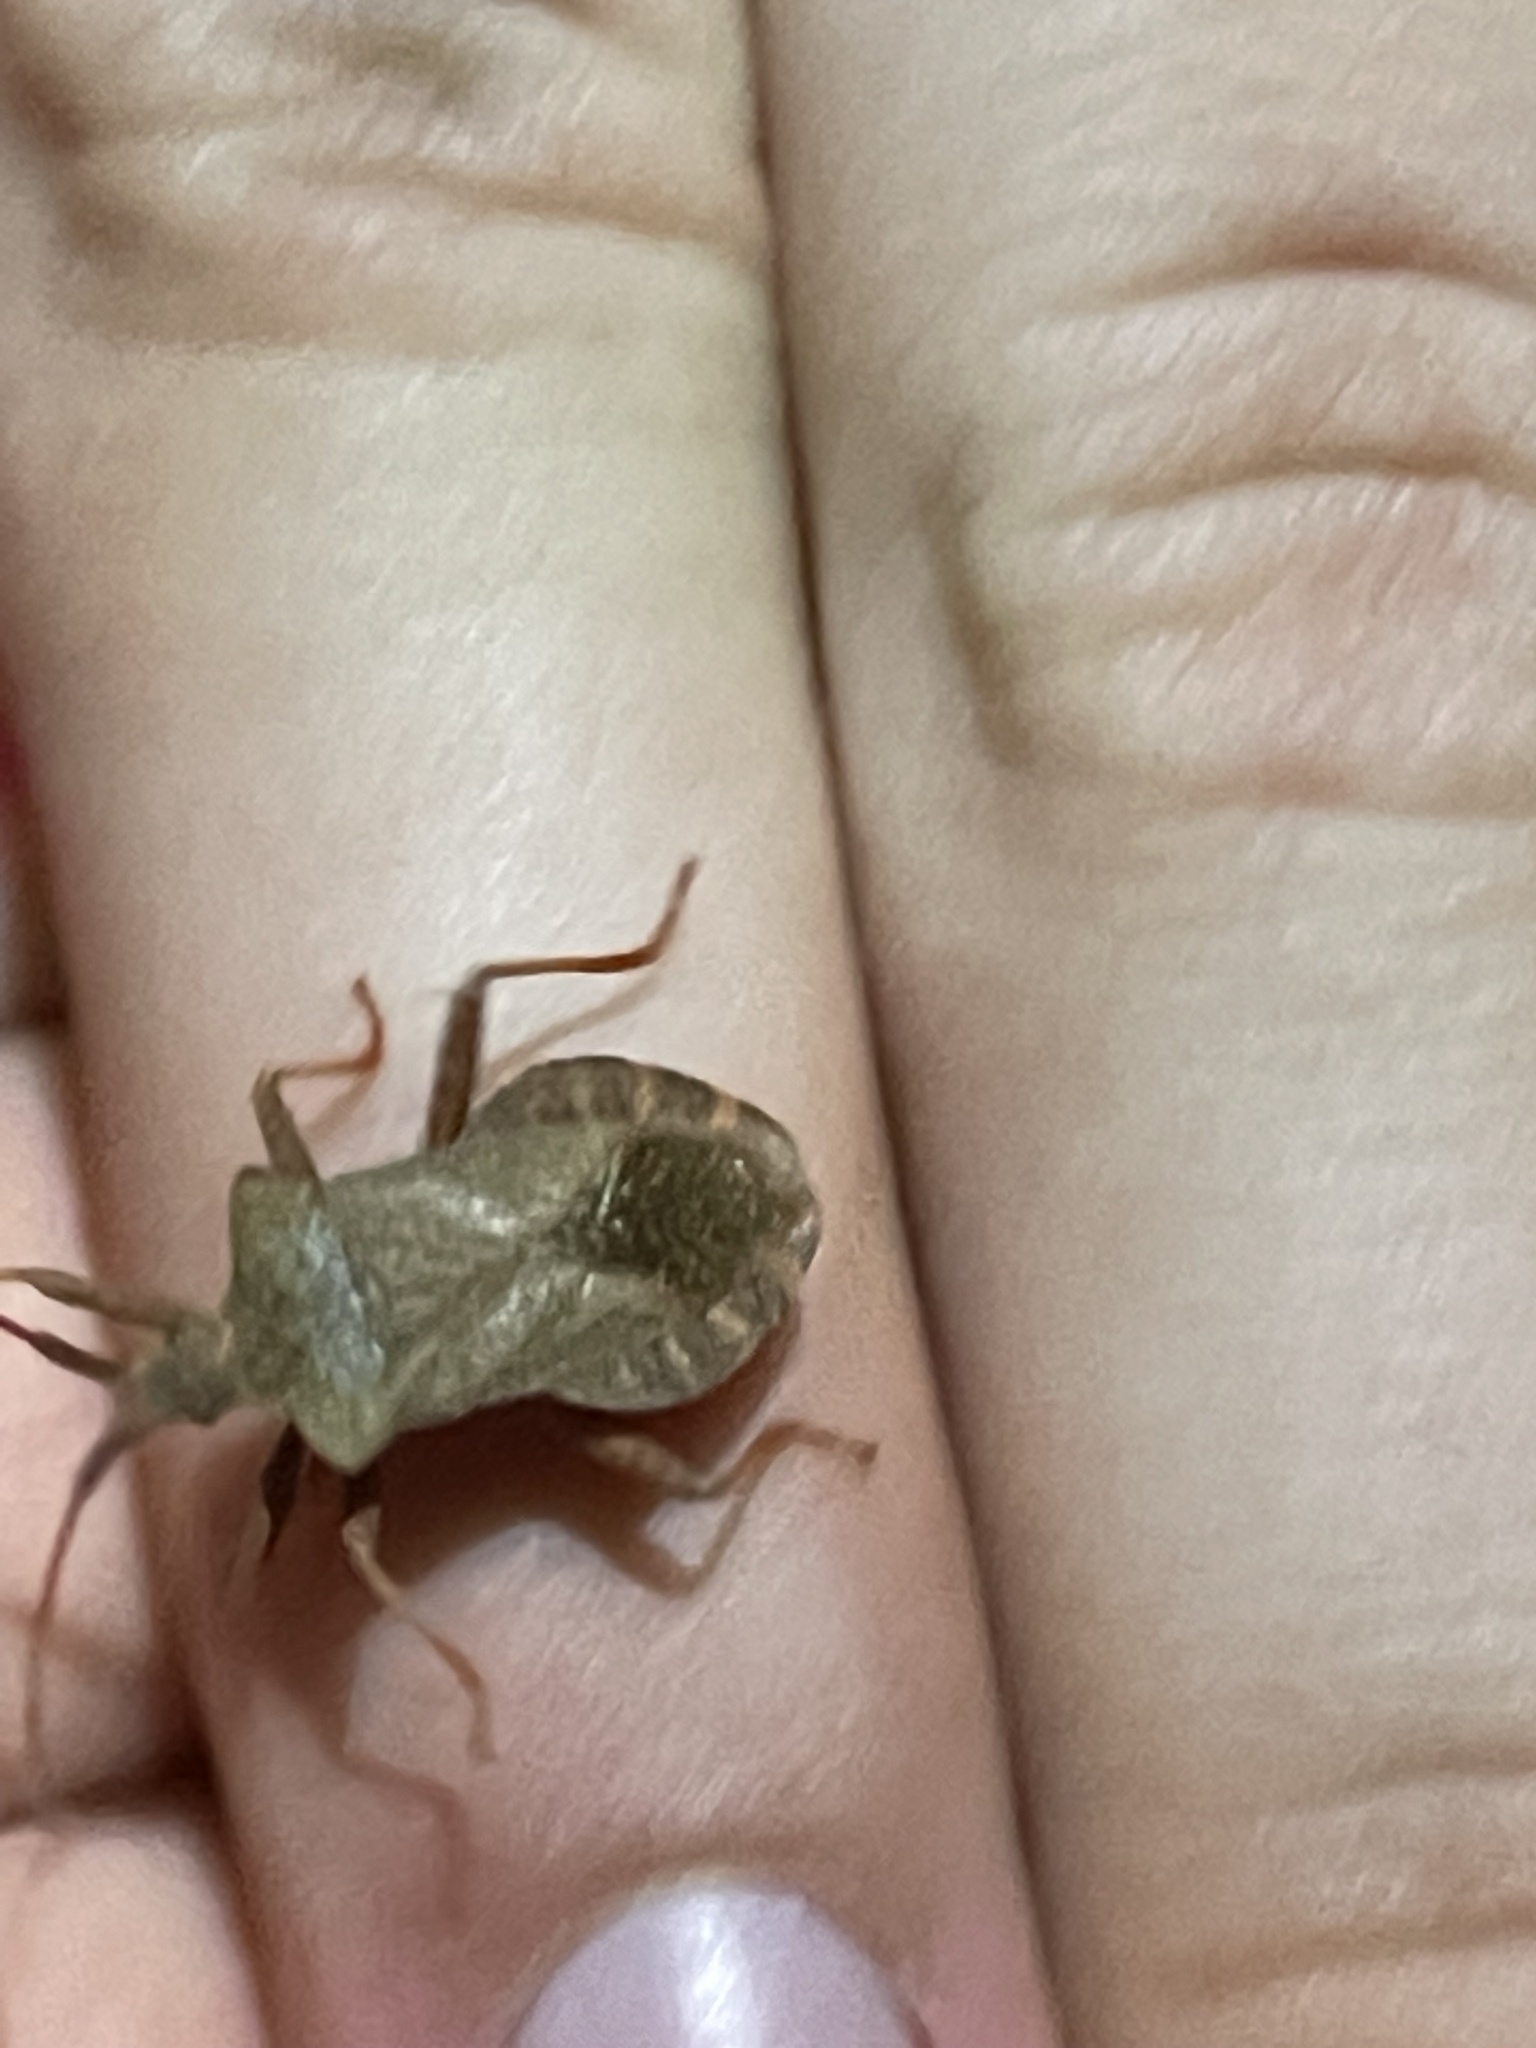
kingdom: Animalia
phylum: Arthropoda
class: Insecta
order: Hemiptera
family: Coreidae
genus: Coreus
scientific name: Coreus marginatus
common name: Dock bug
